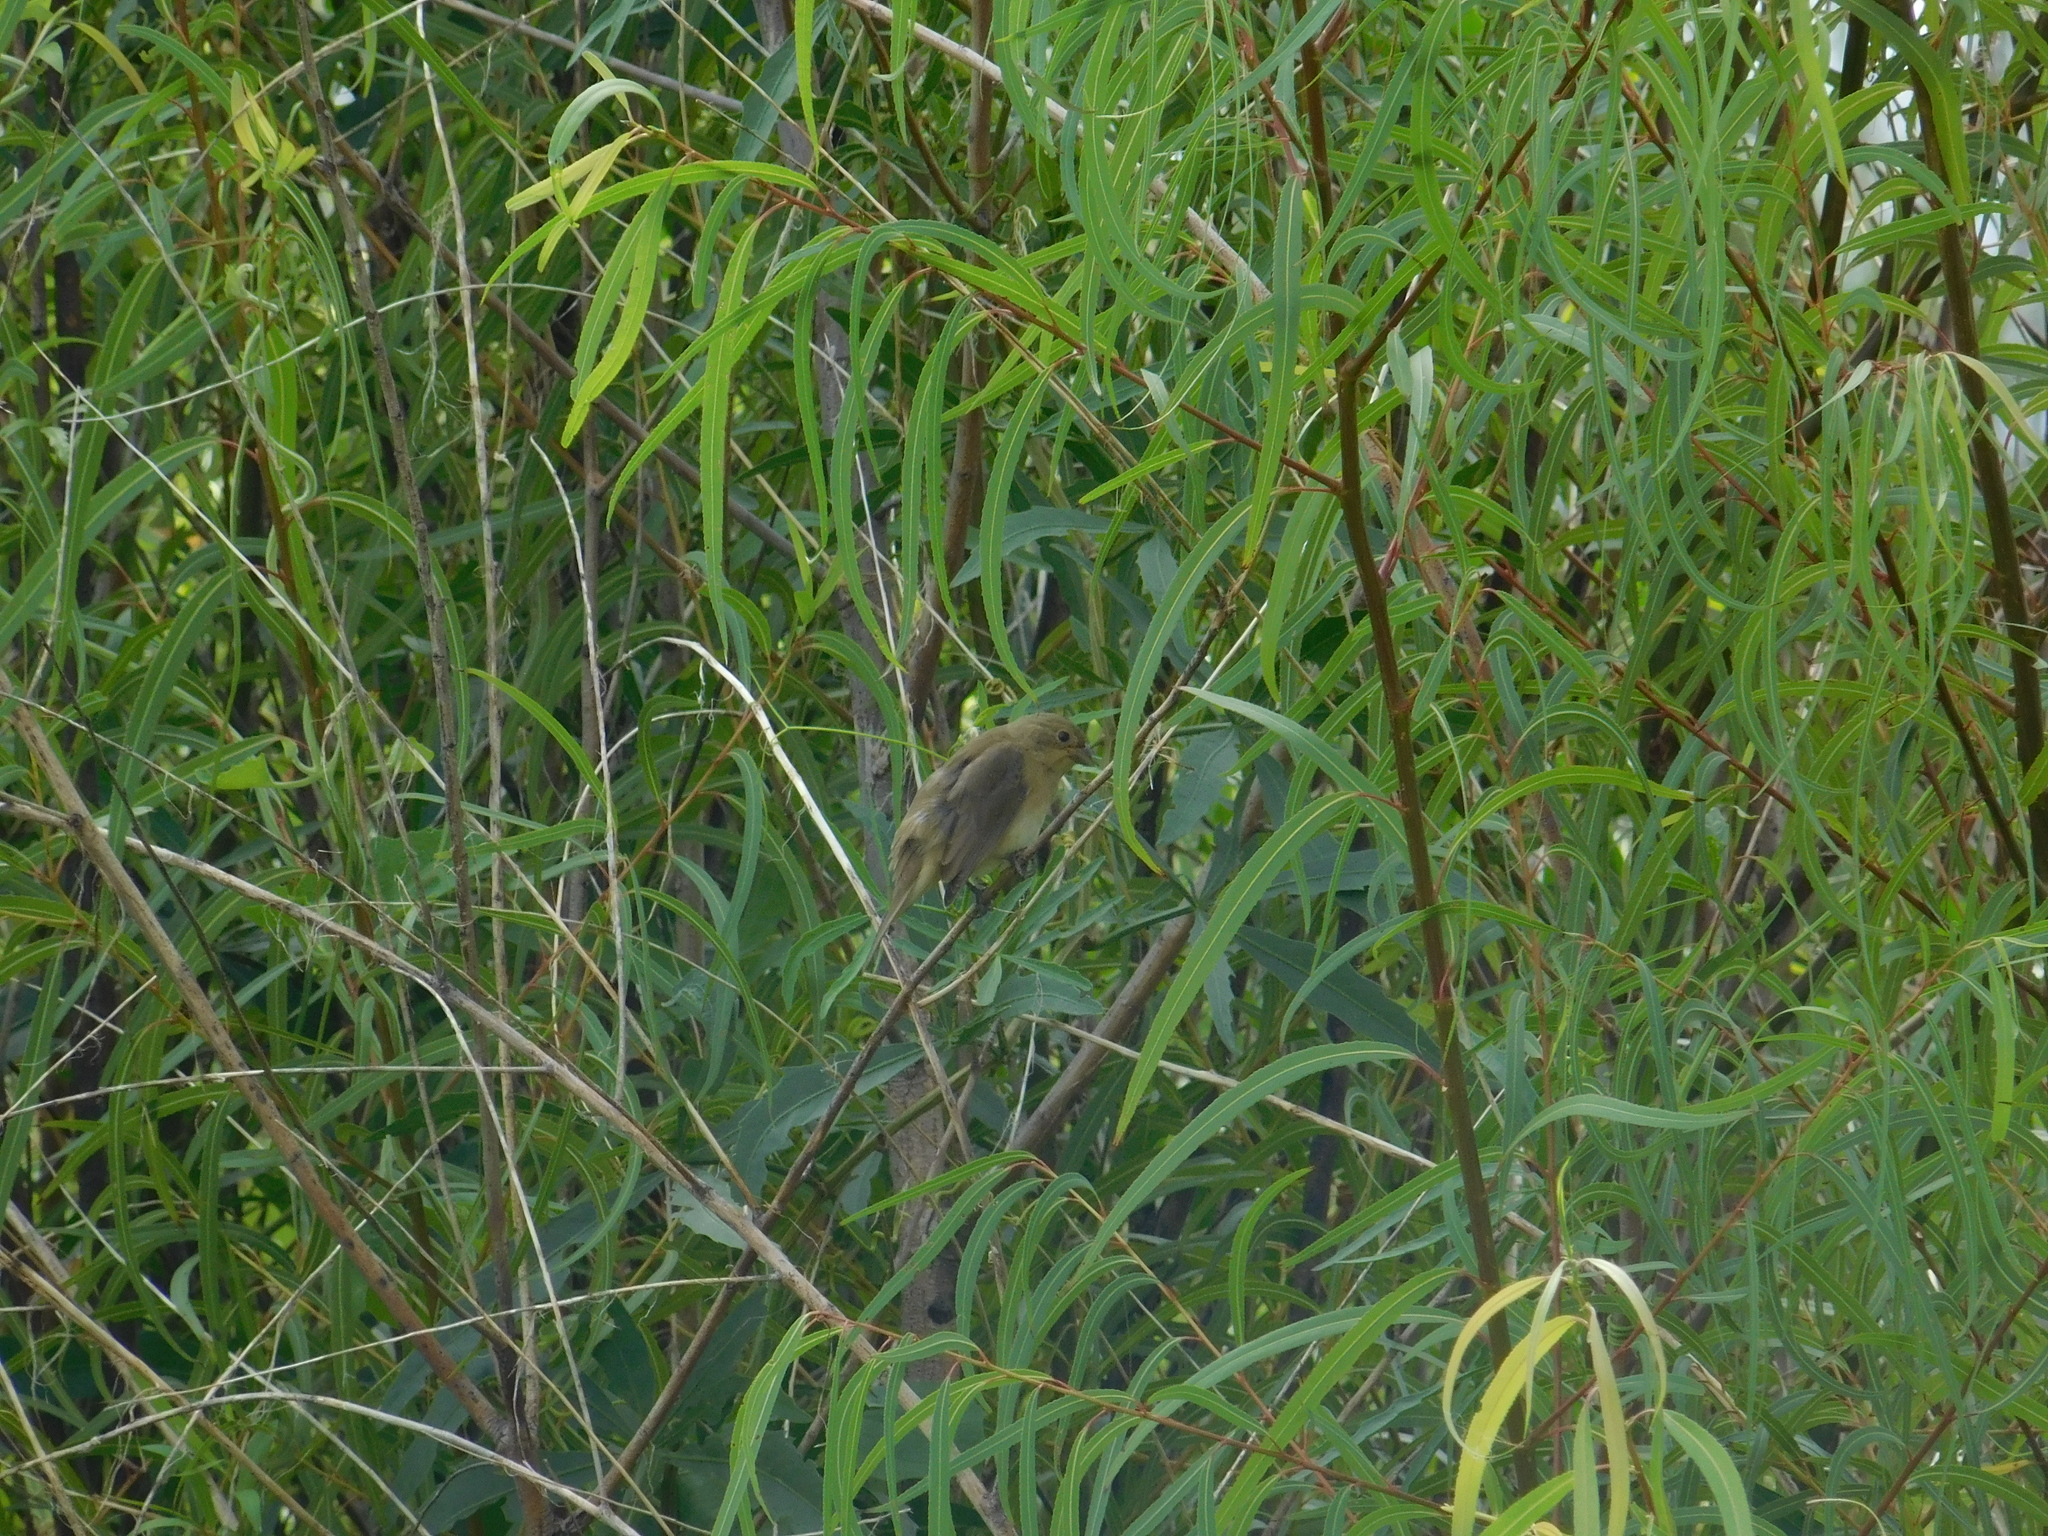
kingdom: Animalia
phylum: Chordata
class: Aves
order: Passeriformes
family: Thraupidae
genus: Sporophila
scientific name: Sporophila caerulescens
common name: Double-collared seedeater
